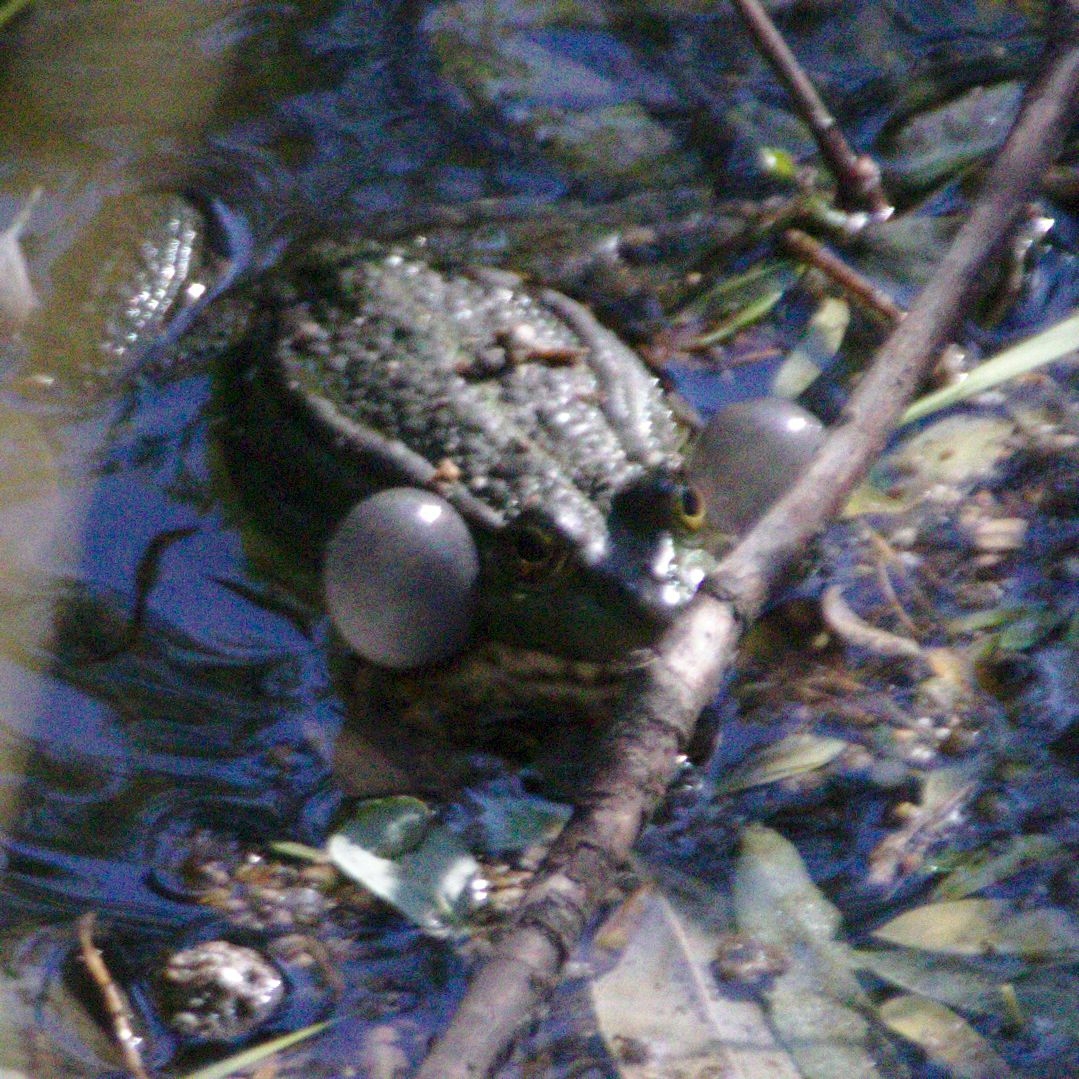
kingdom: Animalia
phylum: Chordata
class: Amphibia
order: Anura
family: Ranidae
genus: Pelophylax
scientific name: Pelophylax ridibundus
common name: Marsh frog
